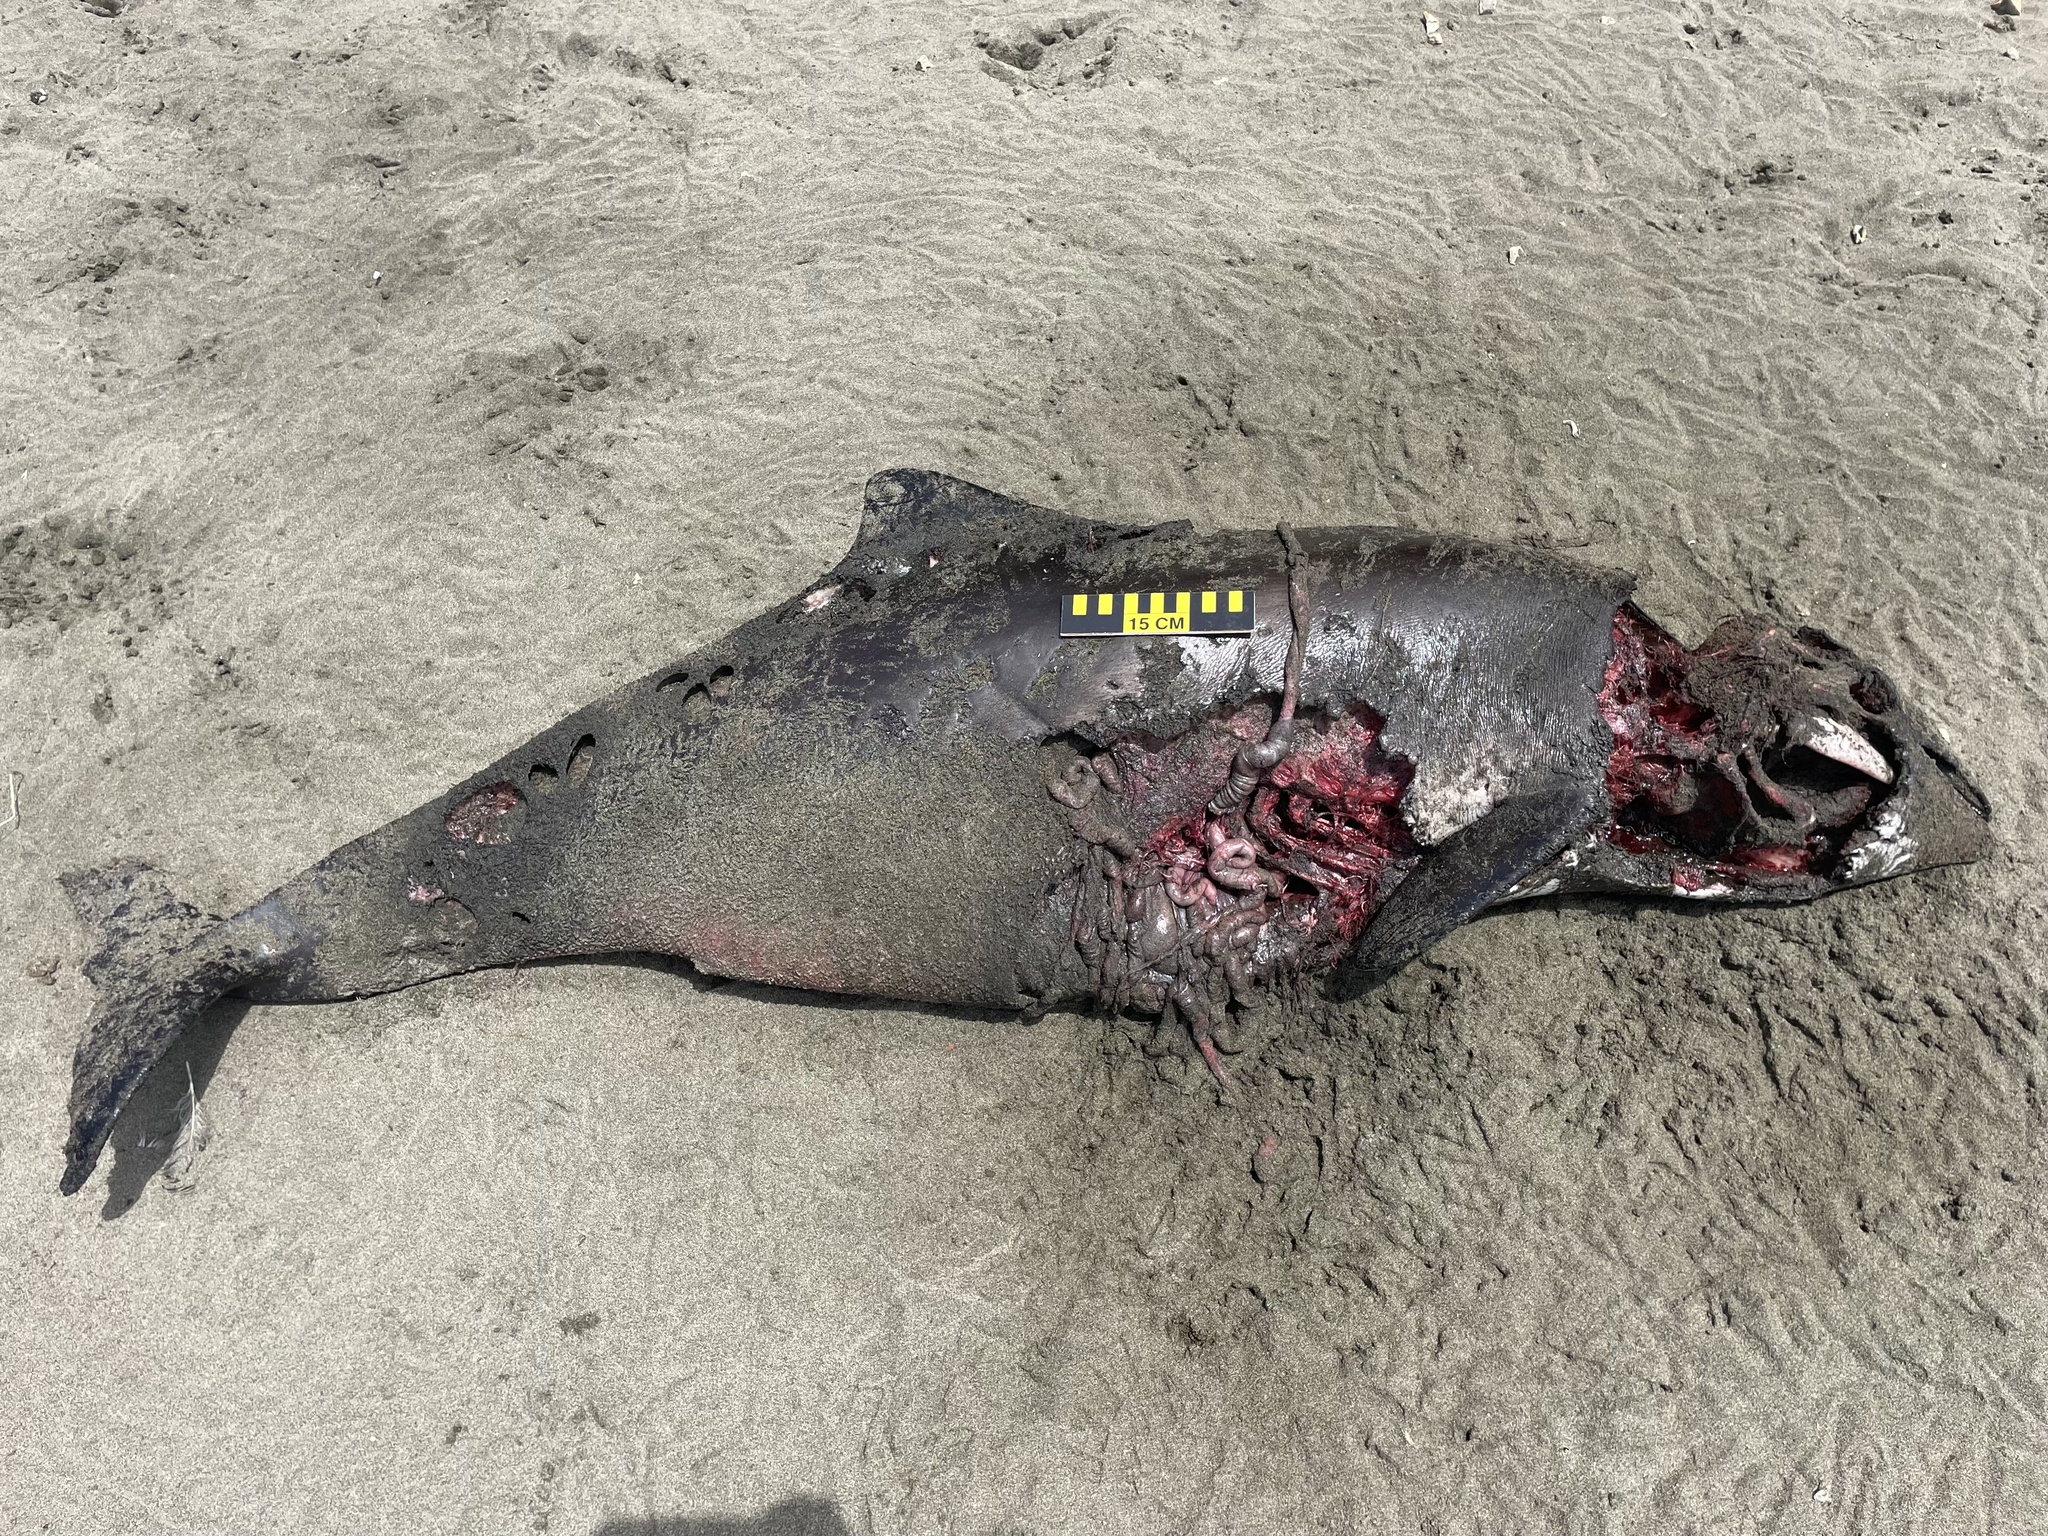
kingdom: Animalia
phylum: Chordata
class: Mammalia
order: Cetacea
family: Phocoenidae
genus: Phocoena
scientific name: Phocoena phocoena
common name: Harbor porpoise
